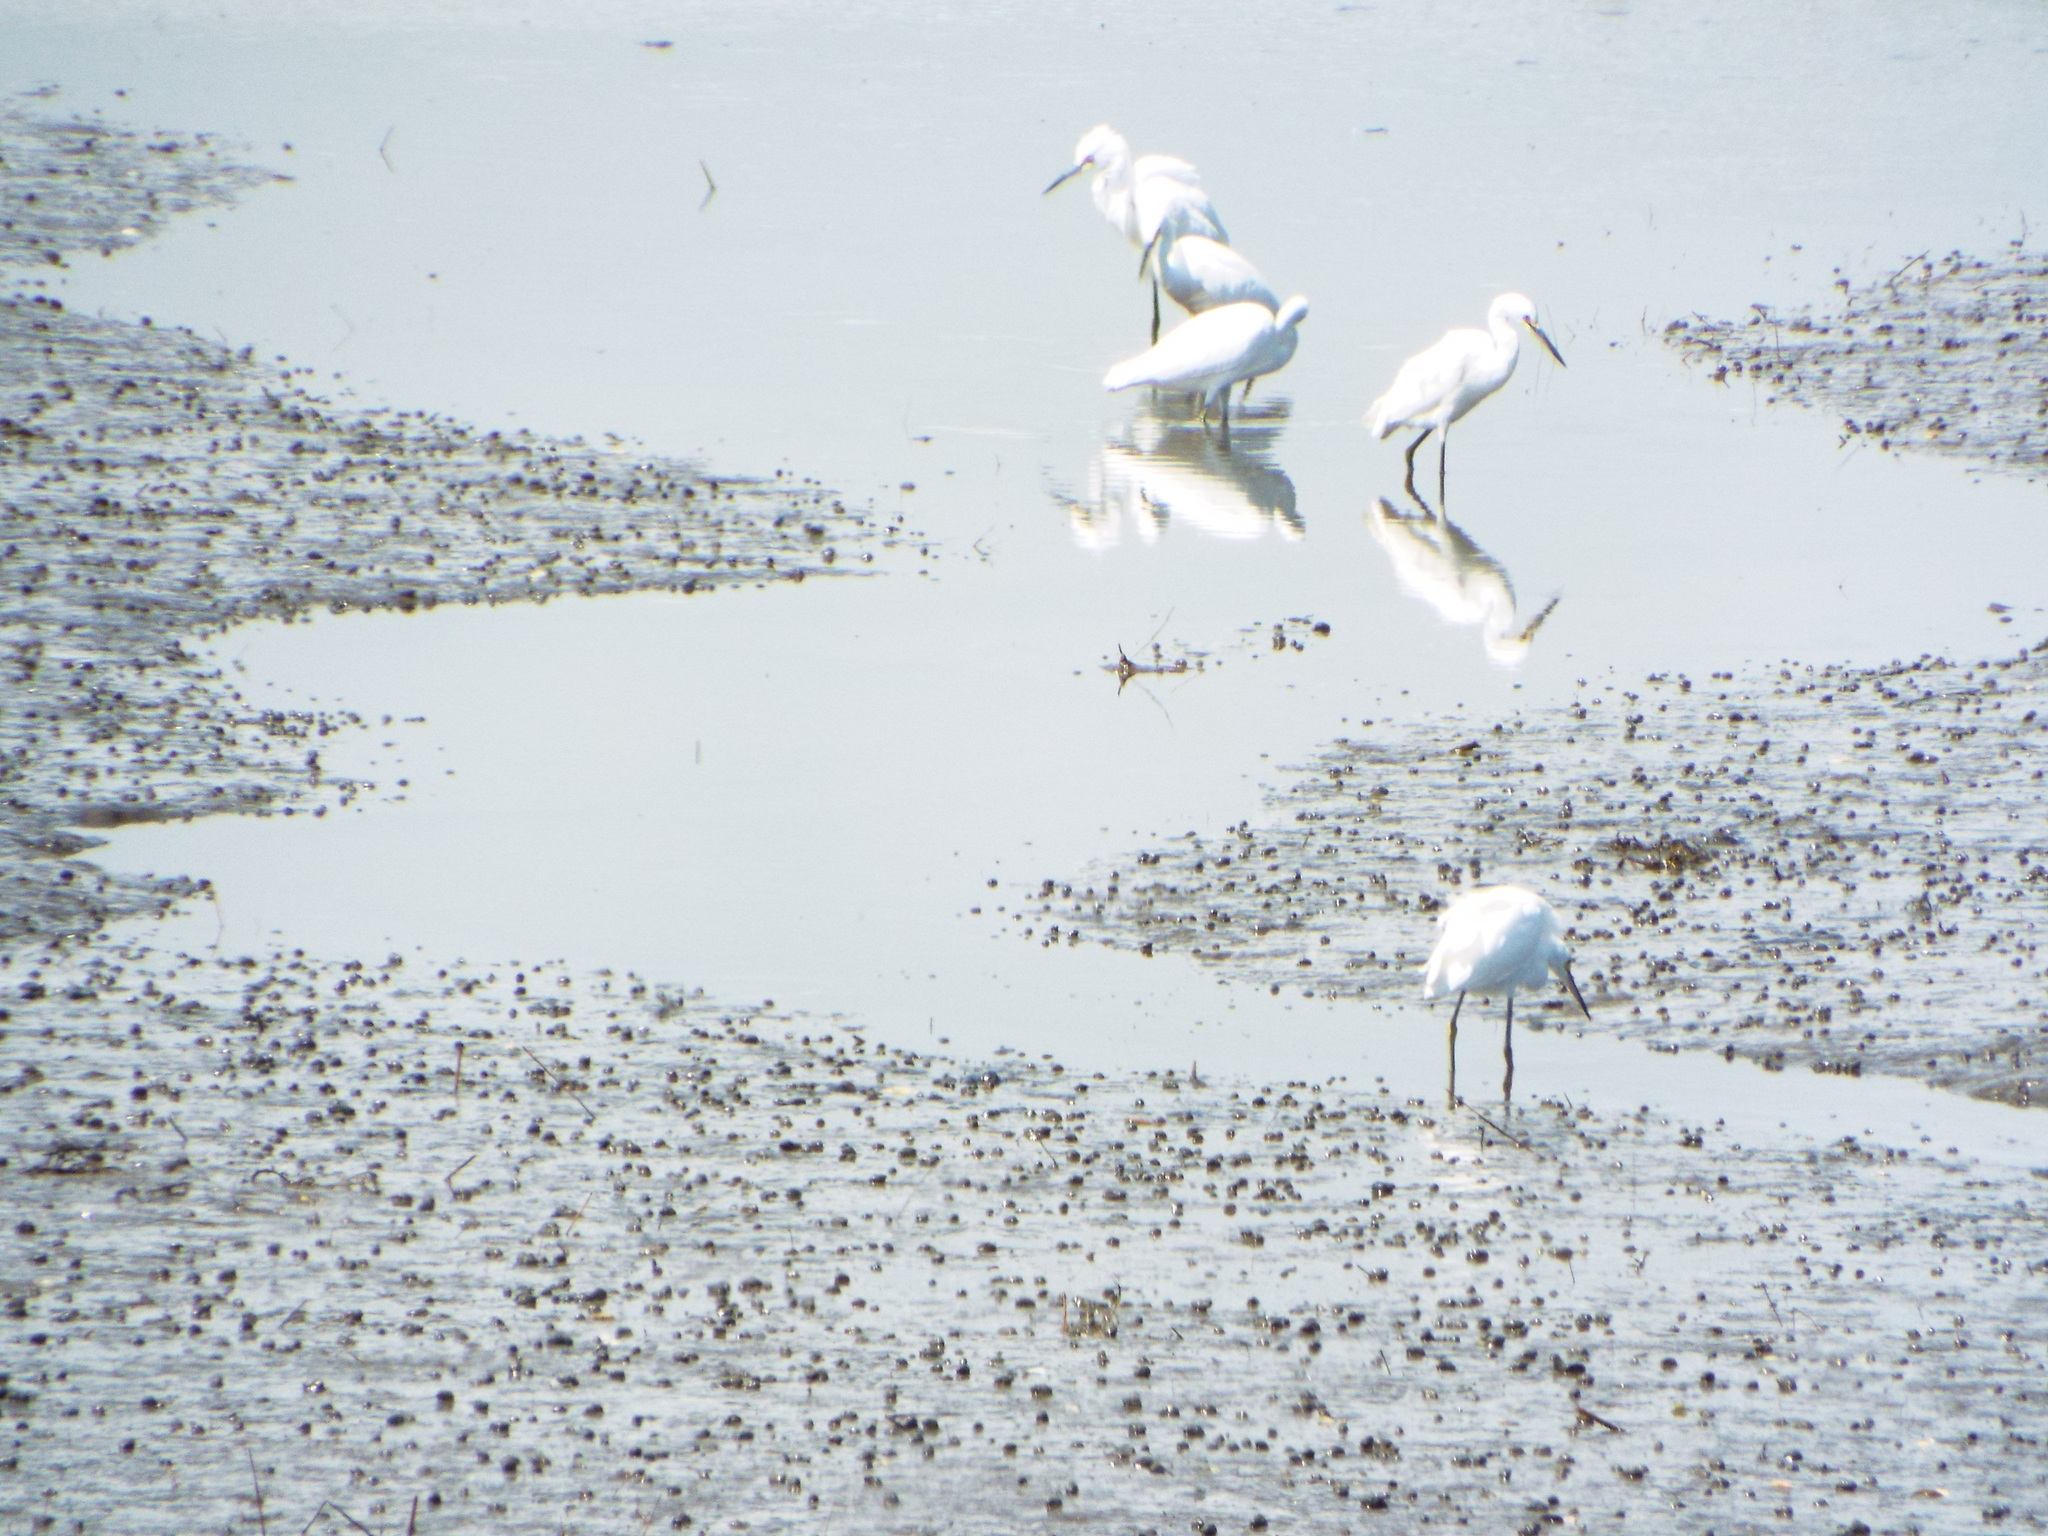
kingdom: Animalia
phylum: Chordata
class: Aves
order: Pelecaniformes
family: Ardeidae
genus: Egretta
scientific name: Egretta thula
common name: Snowy egret
